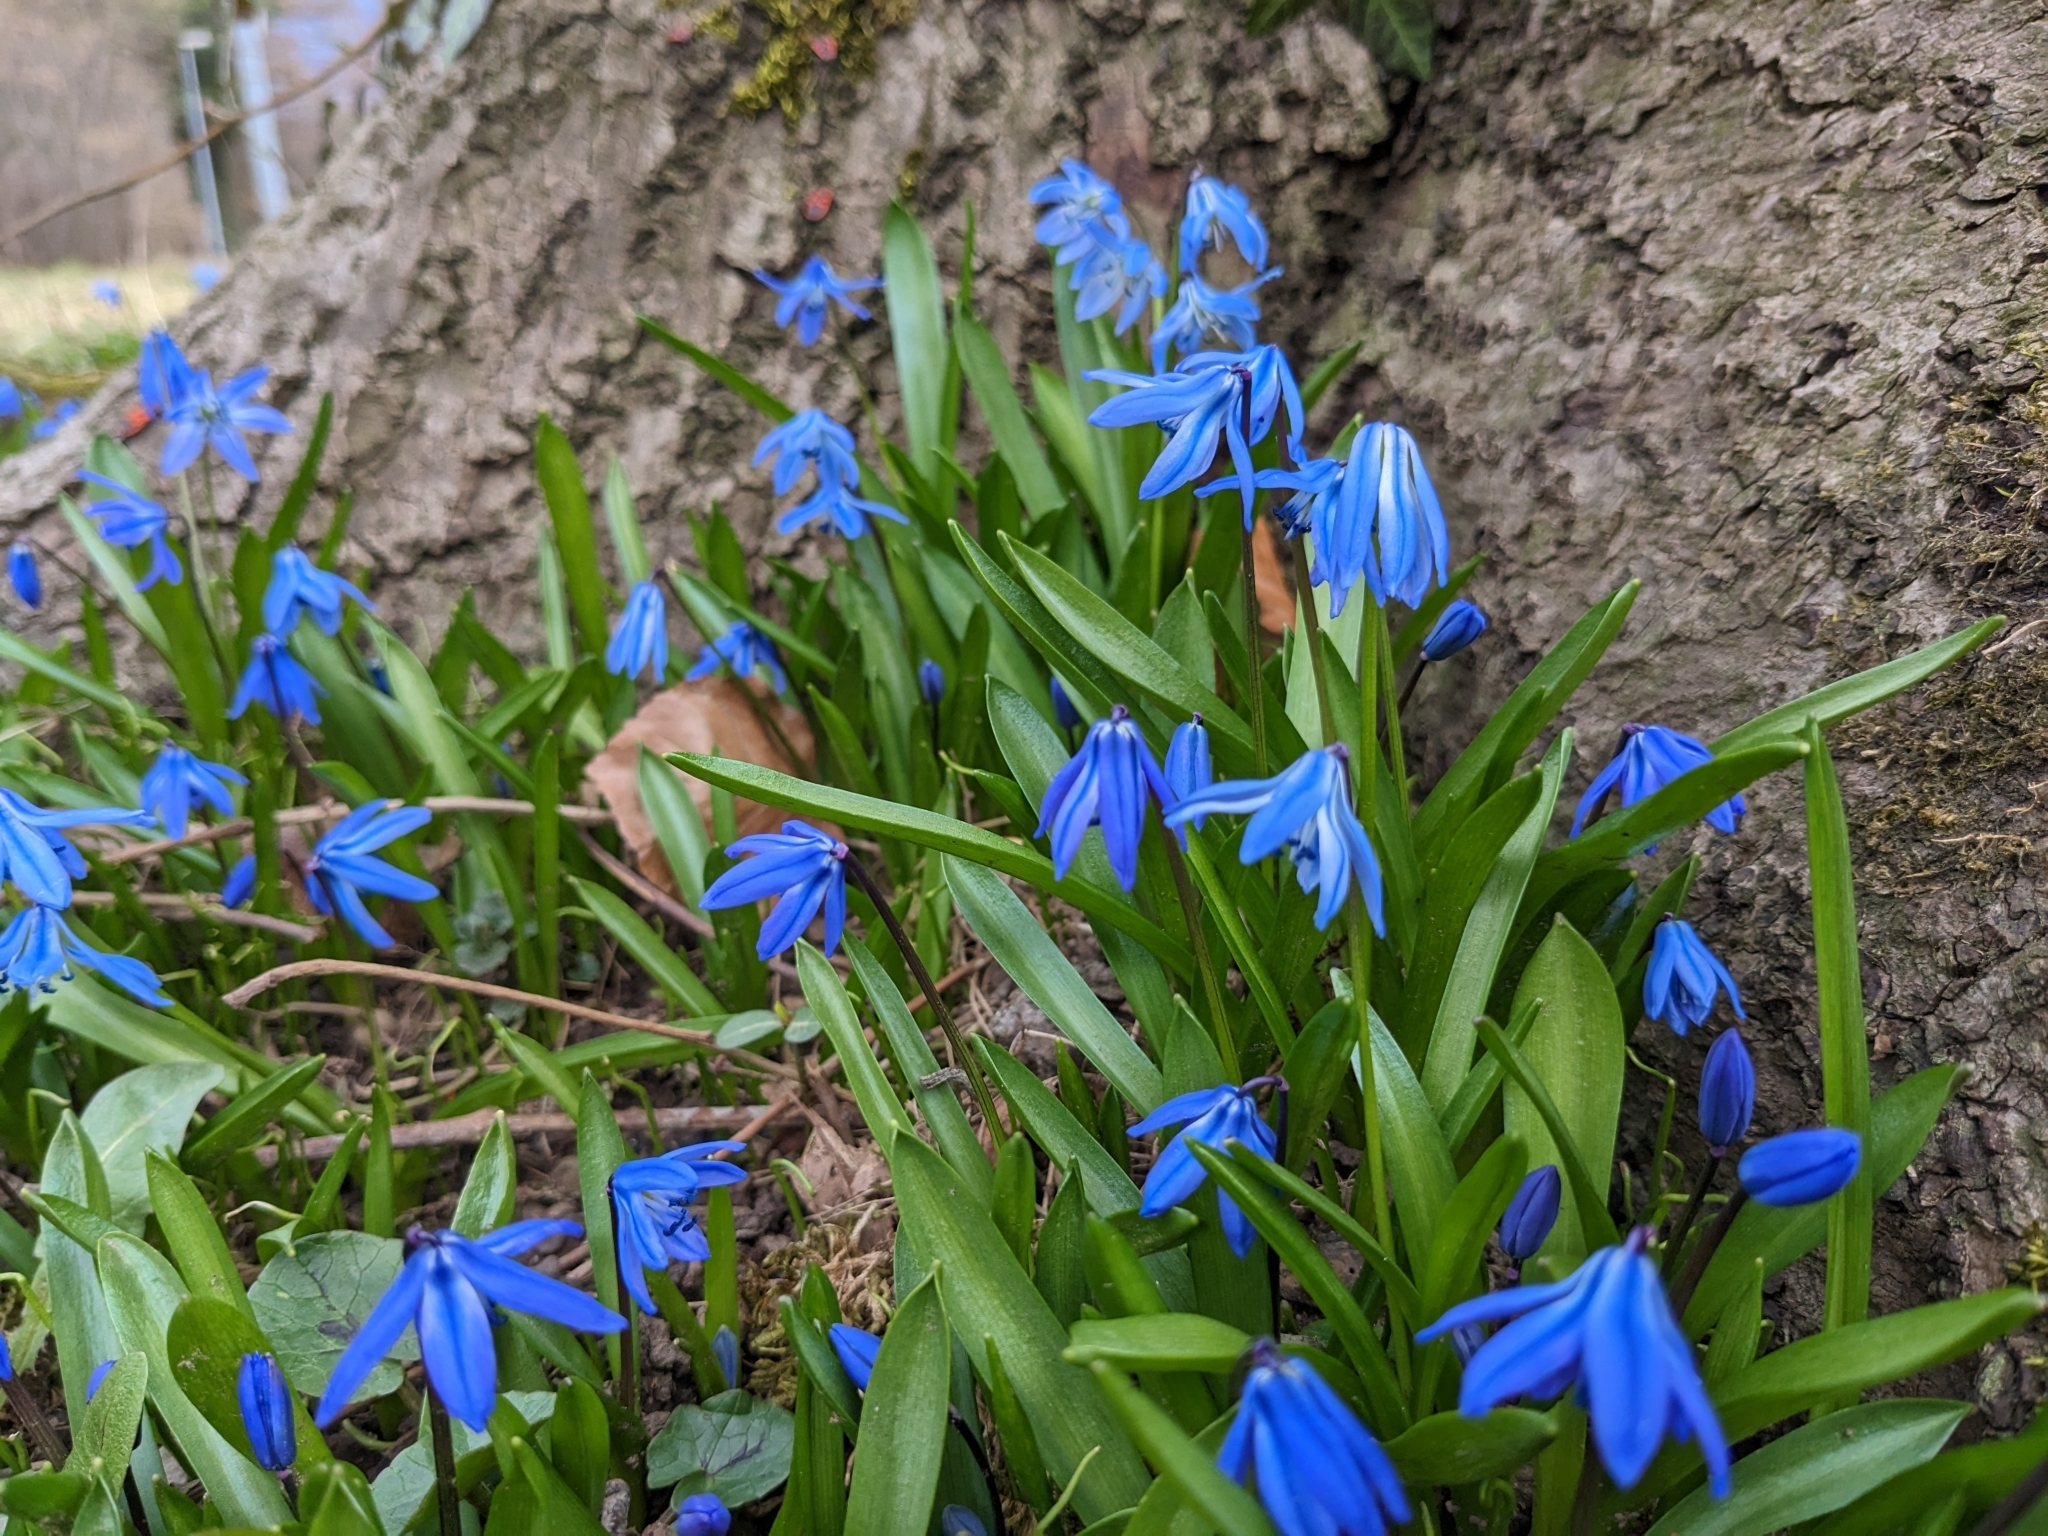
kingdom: Plantae
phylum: Tracheophyta
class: Liliopsida
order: Asparagales
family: Asparagaceae
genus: Scilla
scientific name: Scilla siberica
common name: Siberian squill
